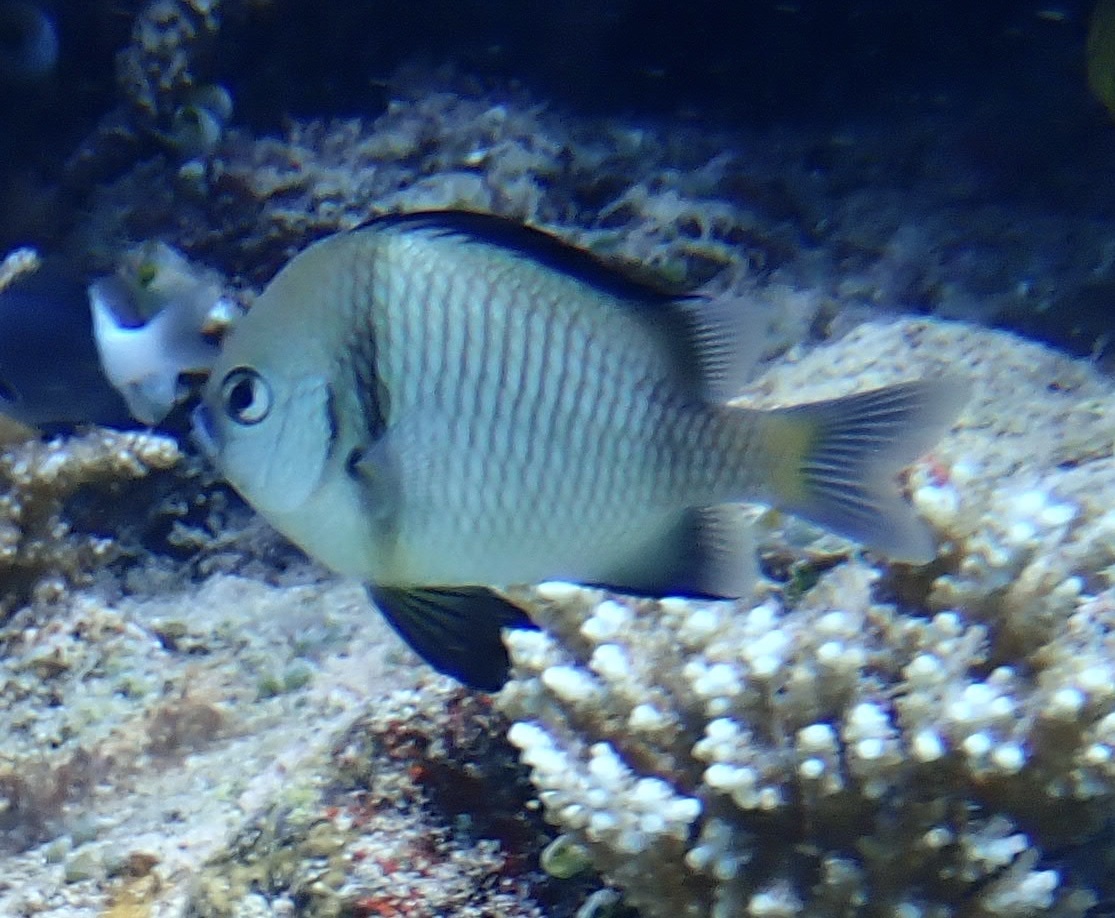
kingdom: Animalia
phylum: Chordata
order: Perciformes
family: Pomacentridae
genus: Dascyllus
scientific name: Dascyllus reticulatus
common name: Reticulated dascyllus
